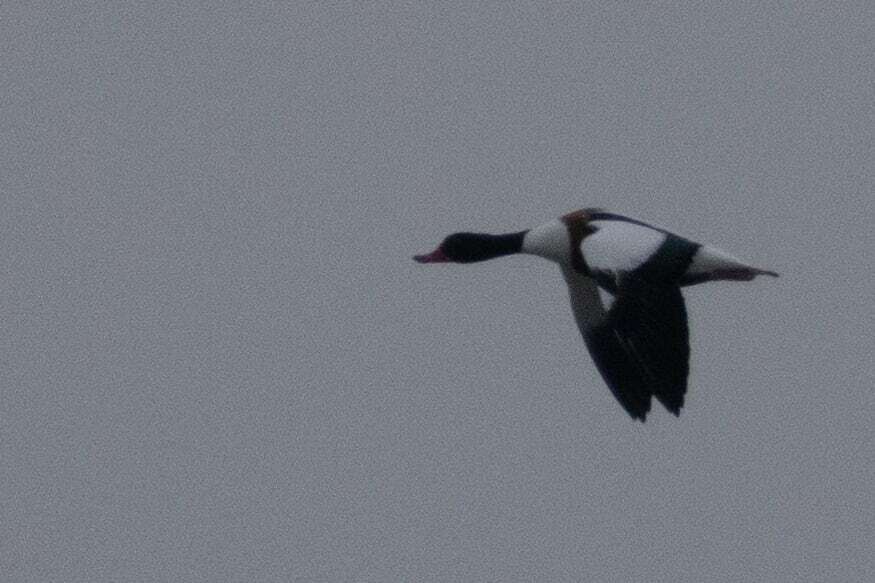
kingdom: Animalia
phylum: Chordata
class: Aves
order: Anseriformes
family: Anatidae
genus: Tadorna
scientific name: Tadorna tadorna
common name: Common shelduck
